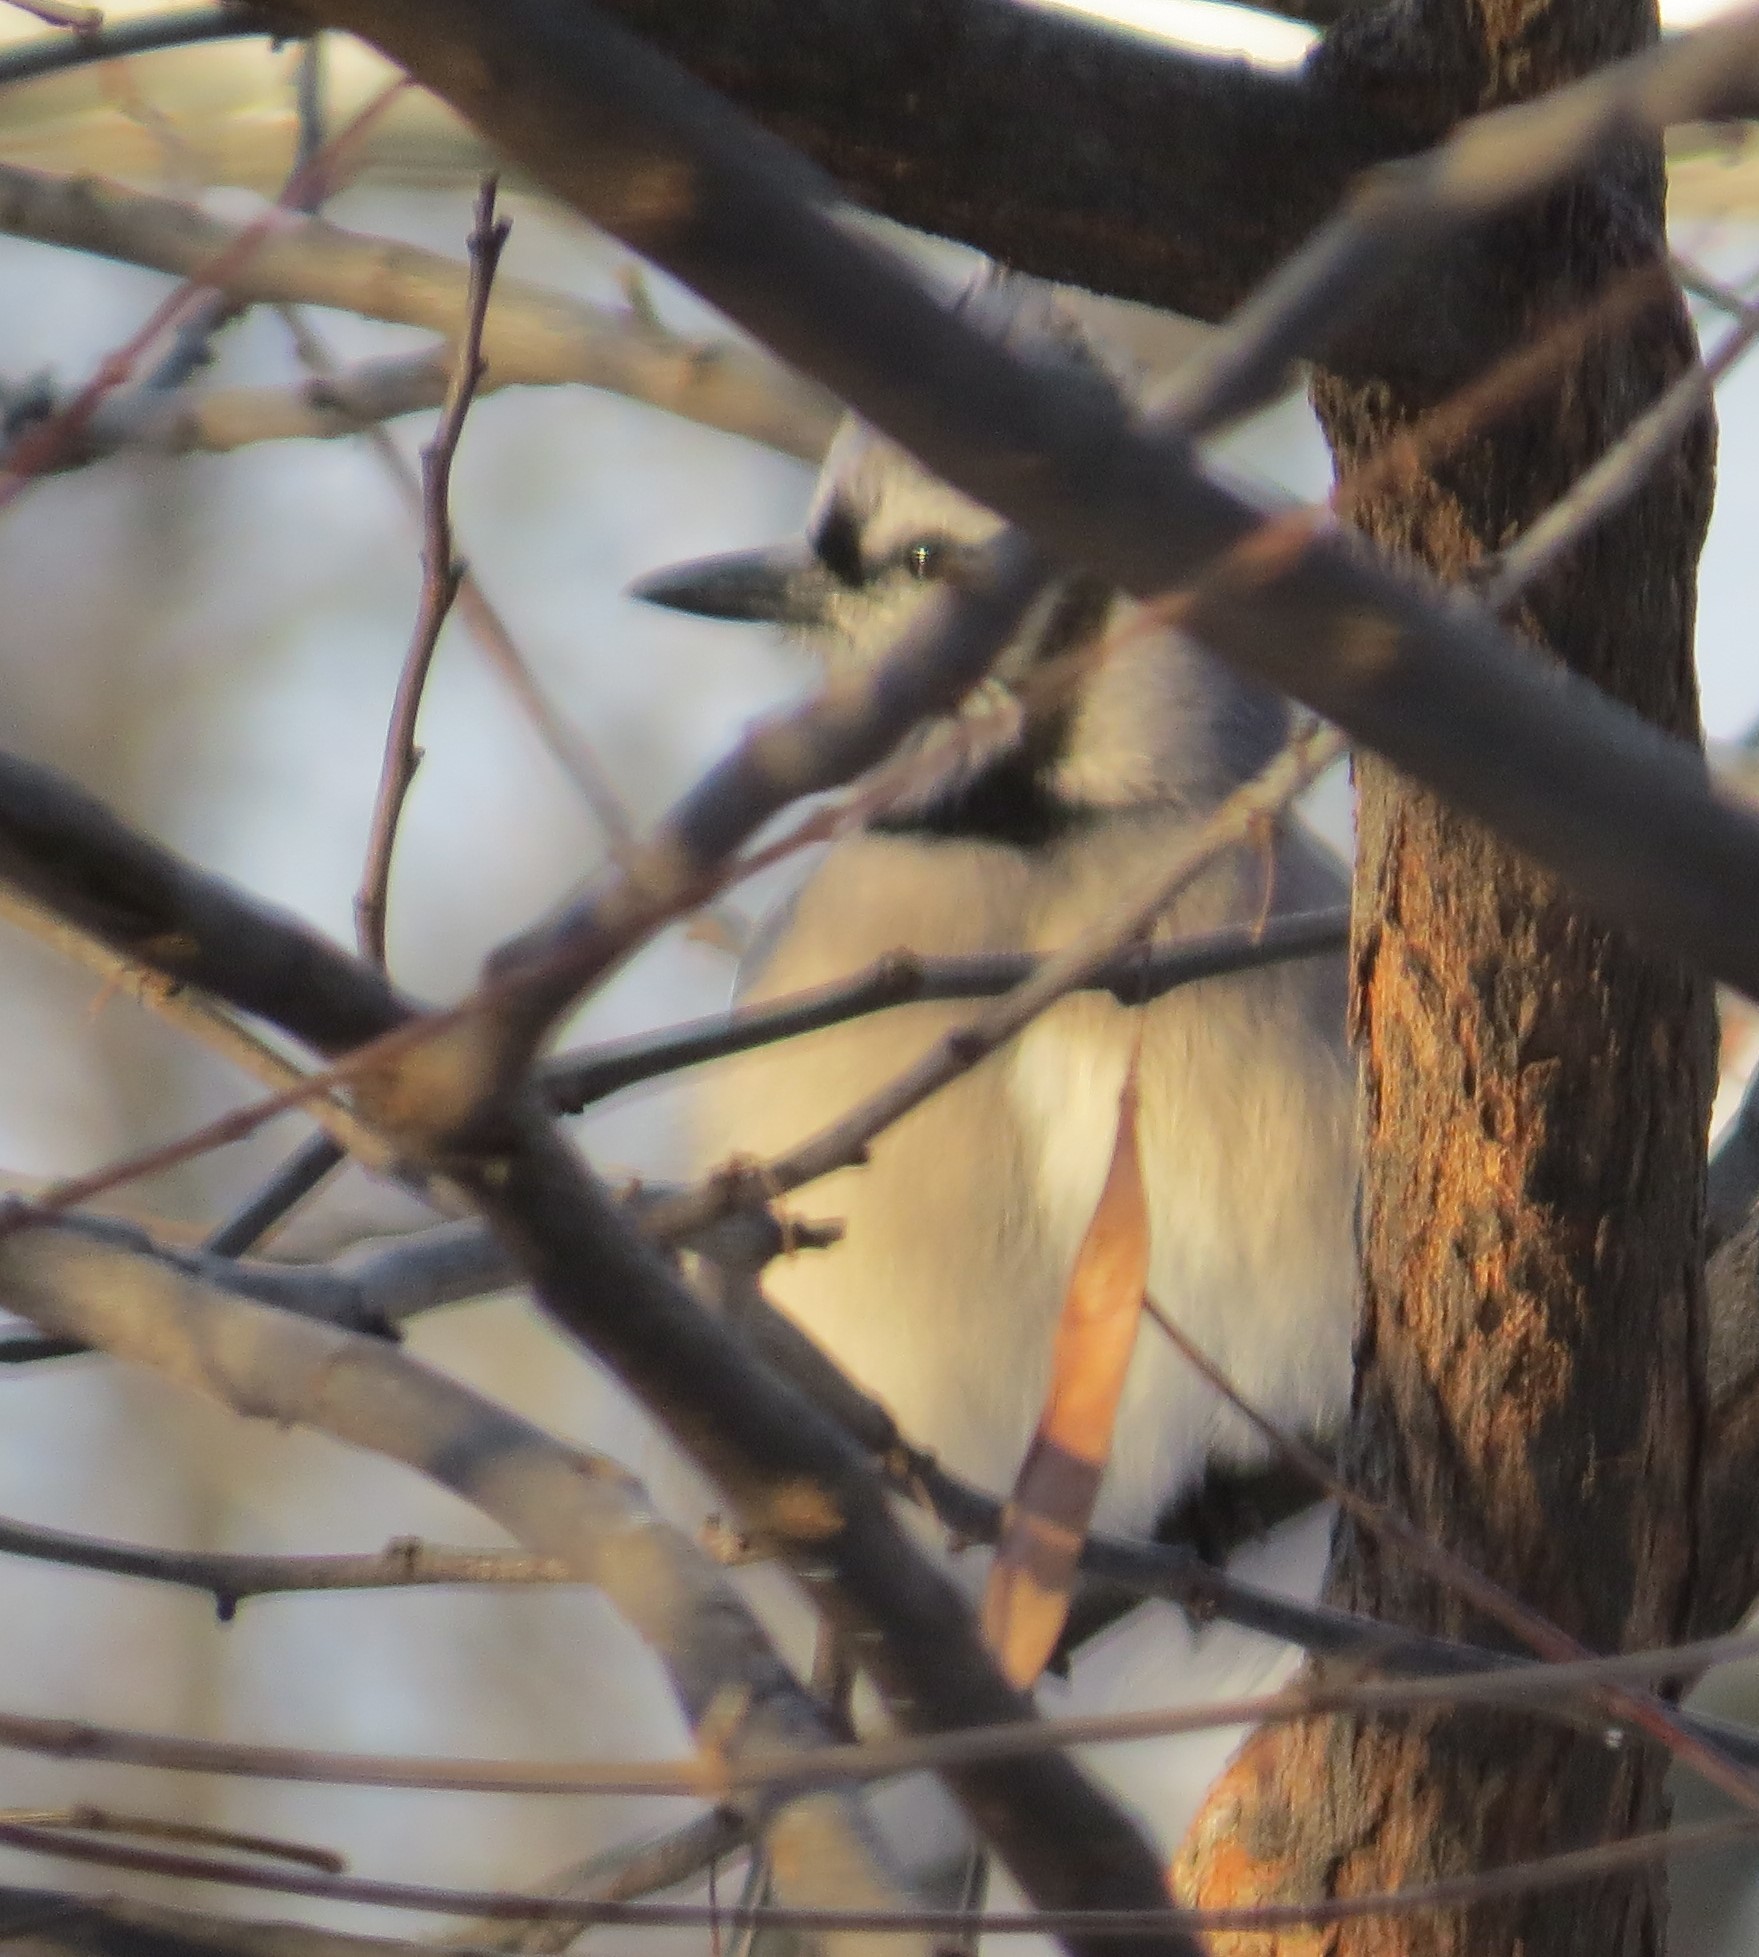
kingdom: Animalia
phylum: Chordata
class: Aves
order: Passeriformes
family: Corvidae
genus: Cyanocitta
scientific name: Cyanocitta cristata
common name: Blue jay
